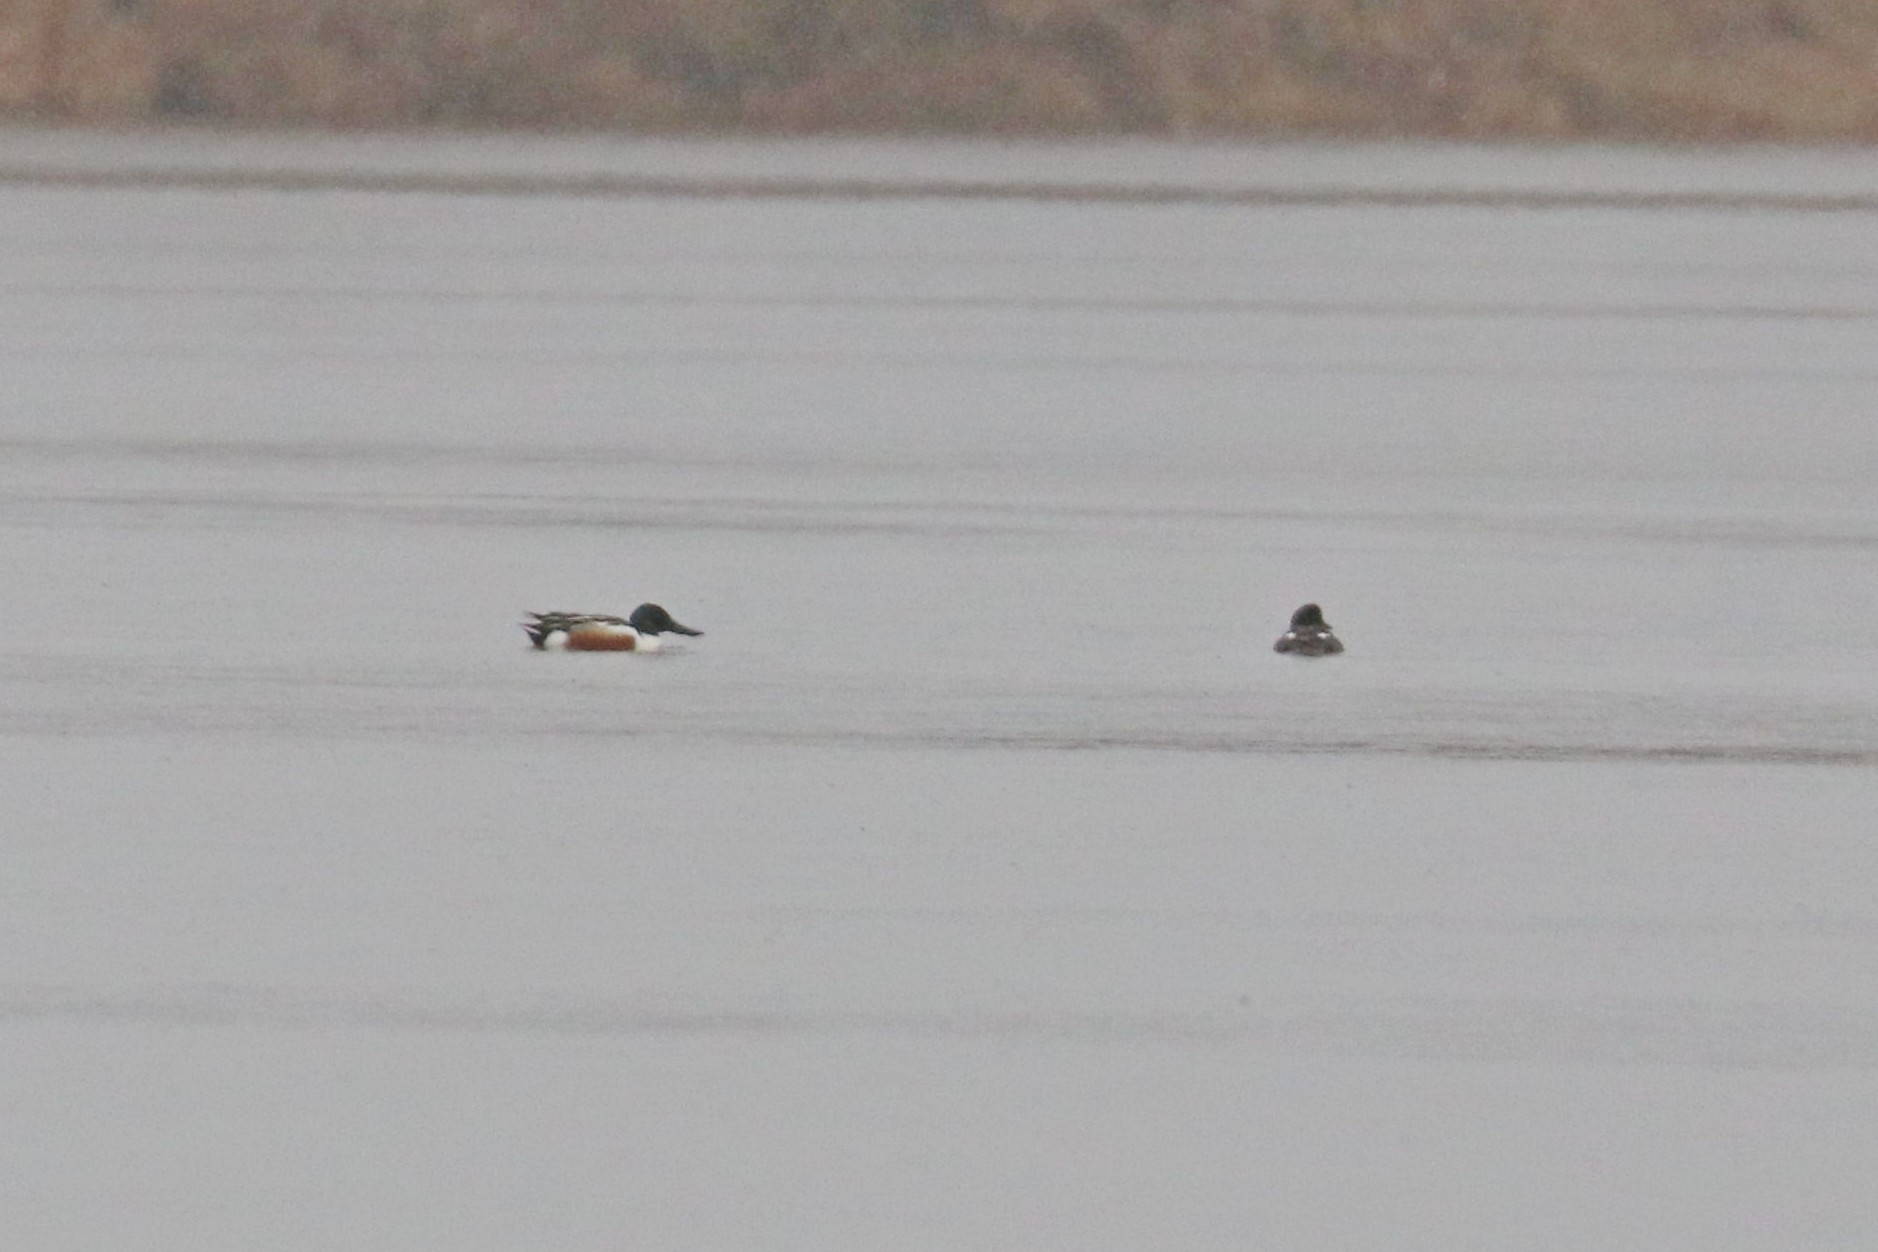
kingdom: Animalia
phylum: Chordata
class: Aves
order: Anseriformes
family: Anatidae
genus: Spatula
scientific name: Spatula clypeata
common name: Northern shoveler
